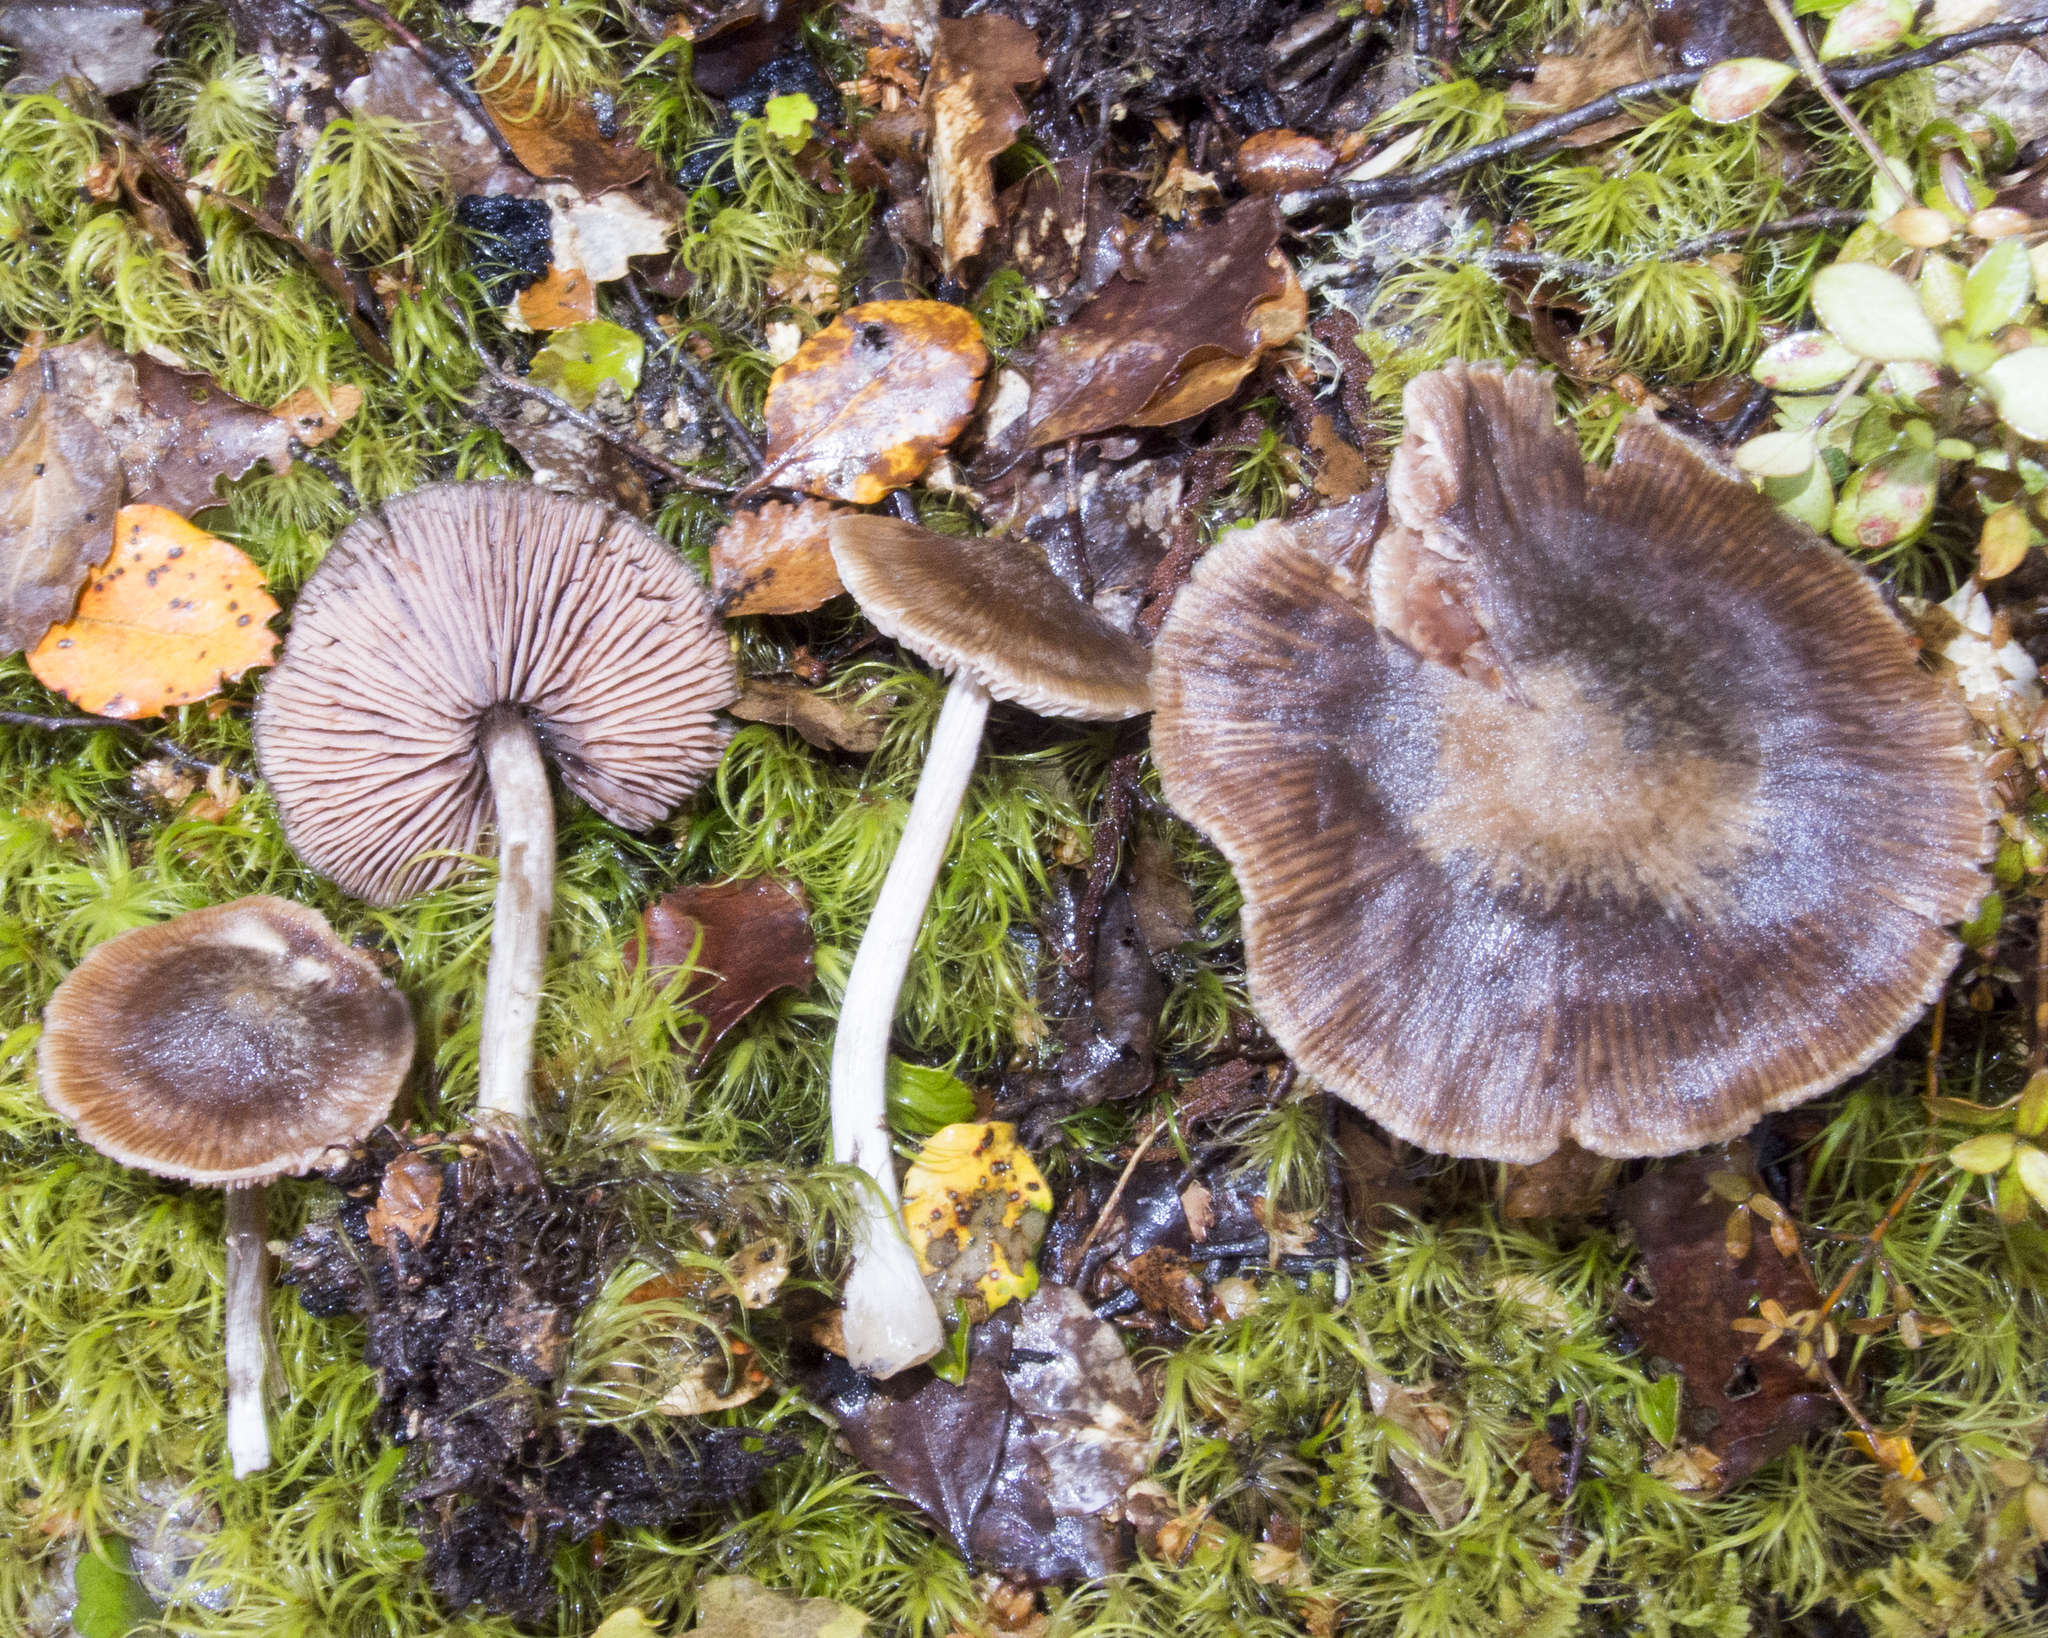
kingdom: Fungi
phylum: Basidiomycota
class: Agaricomycetes
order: Agaricales
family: Entolomataceae
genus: Entoloma
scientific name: Entoloma translucidum
